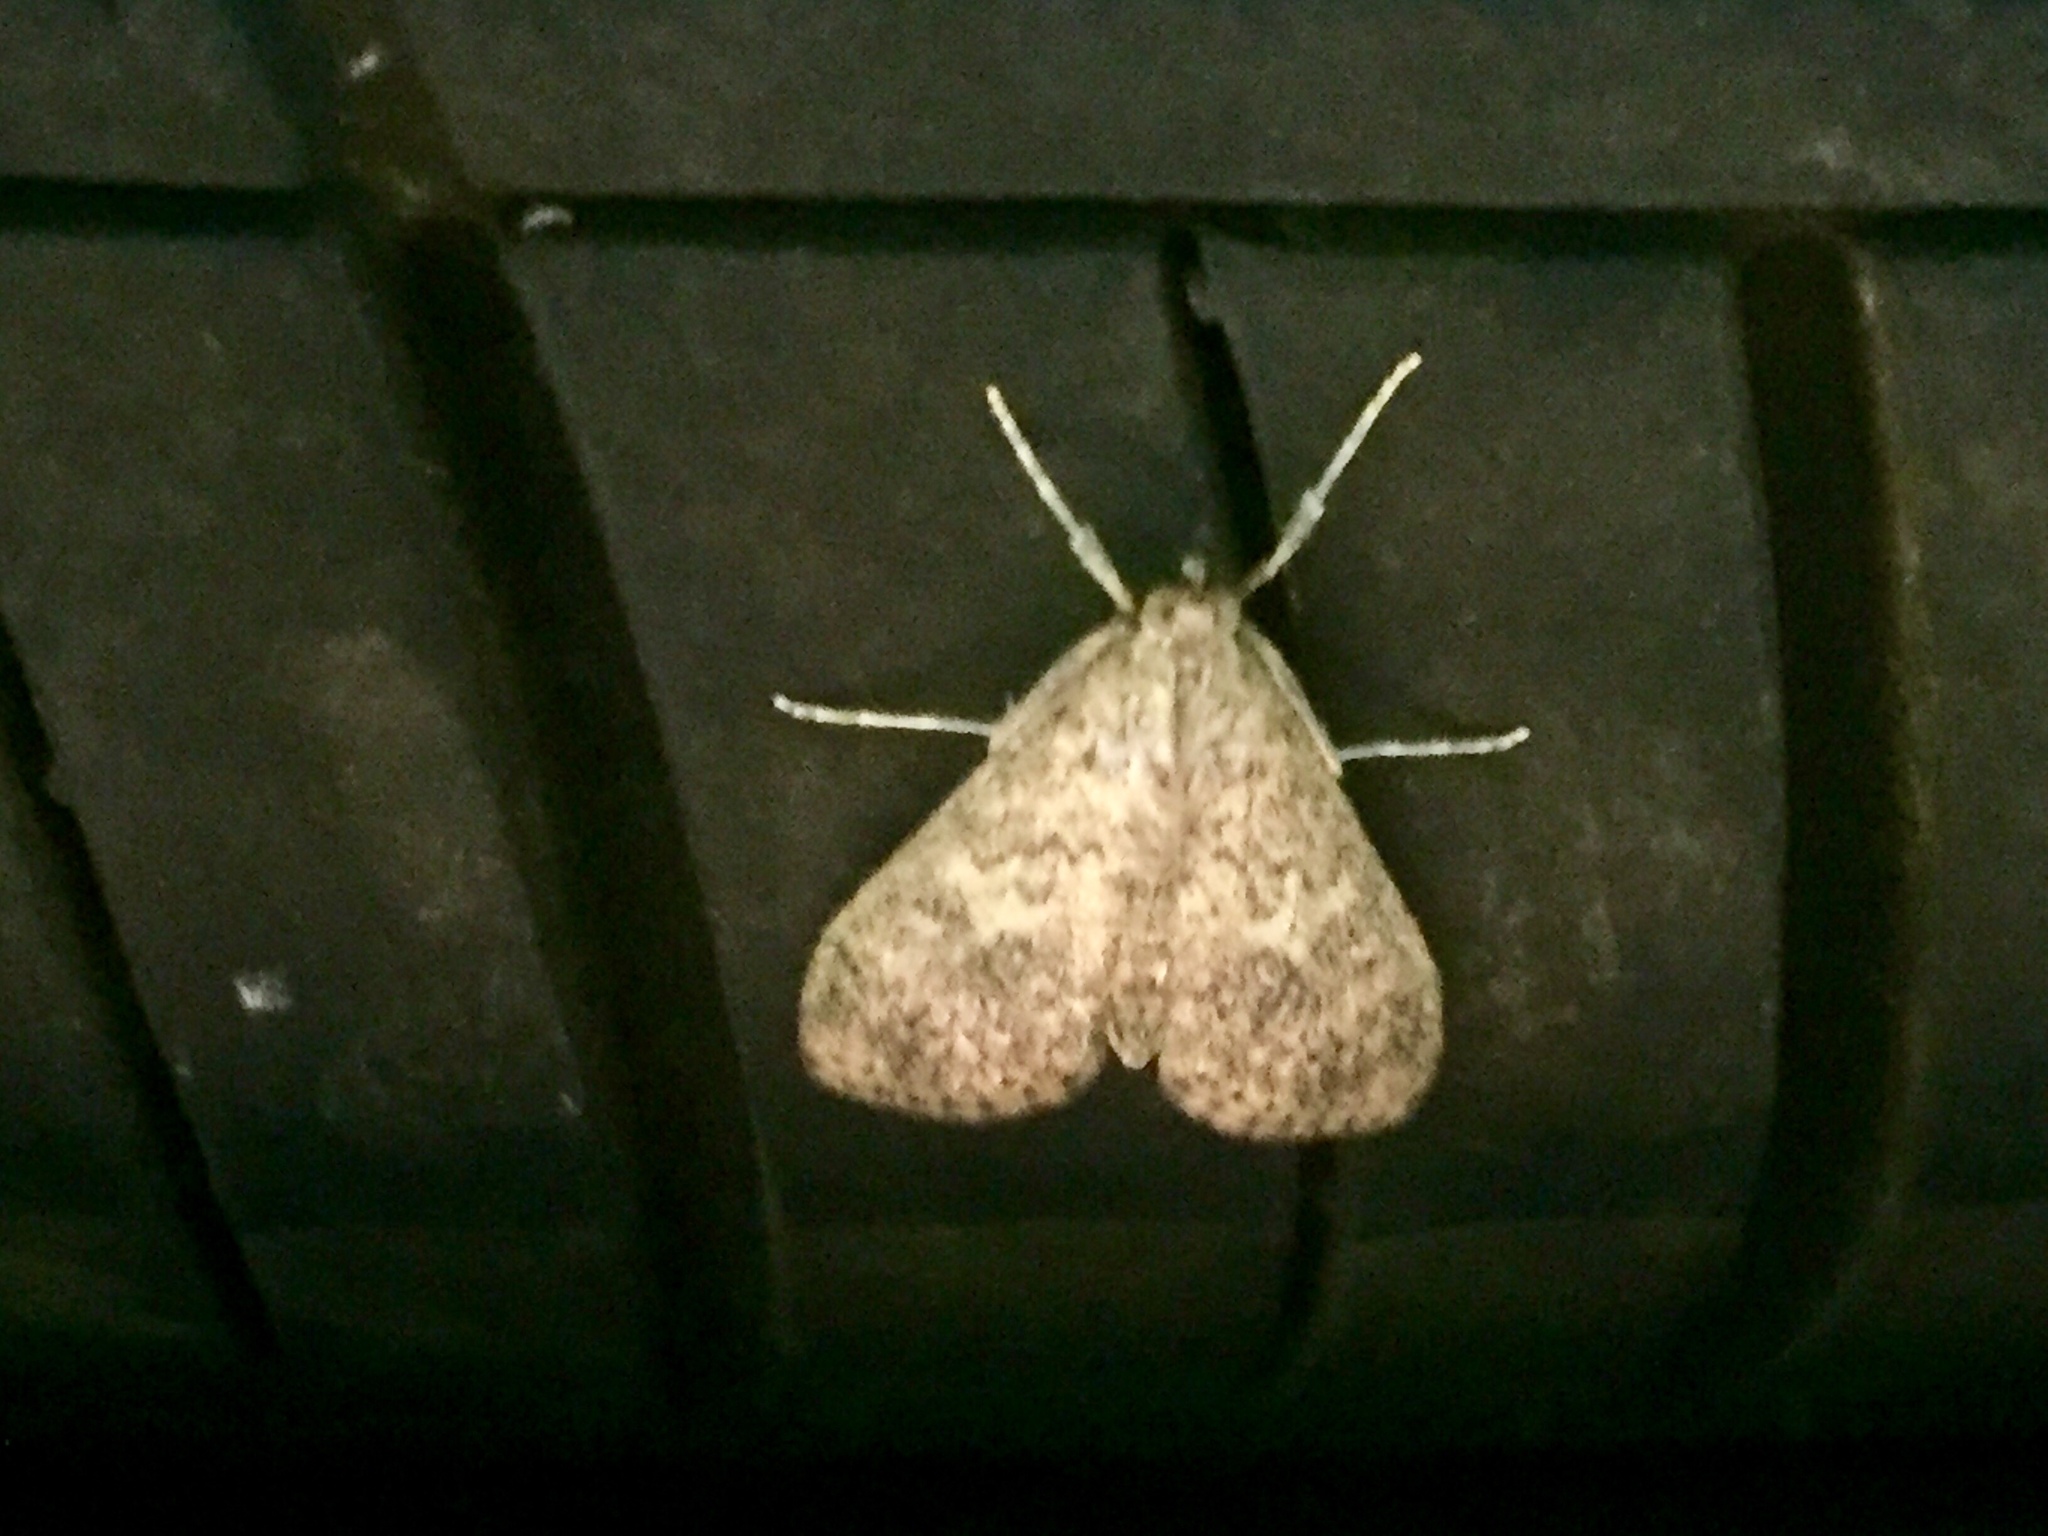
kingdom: Animalia
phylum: Arthropoda
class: Insecta
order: Lepidoptera
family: Crambidae
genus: Asciodes
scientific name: Asciodes gordialis
